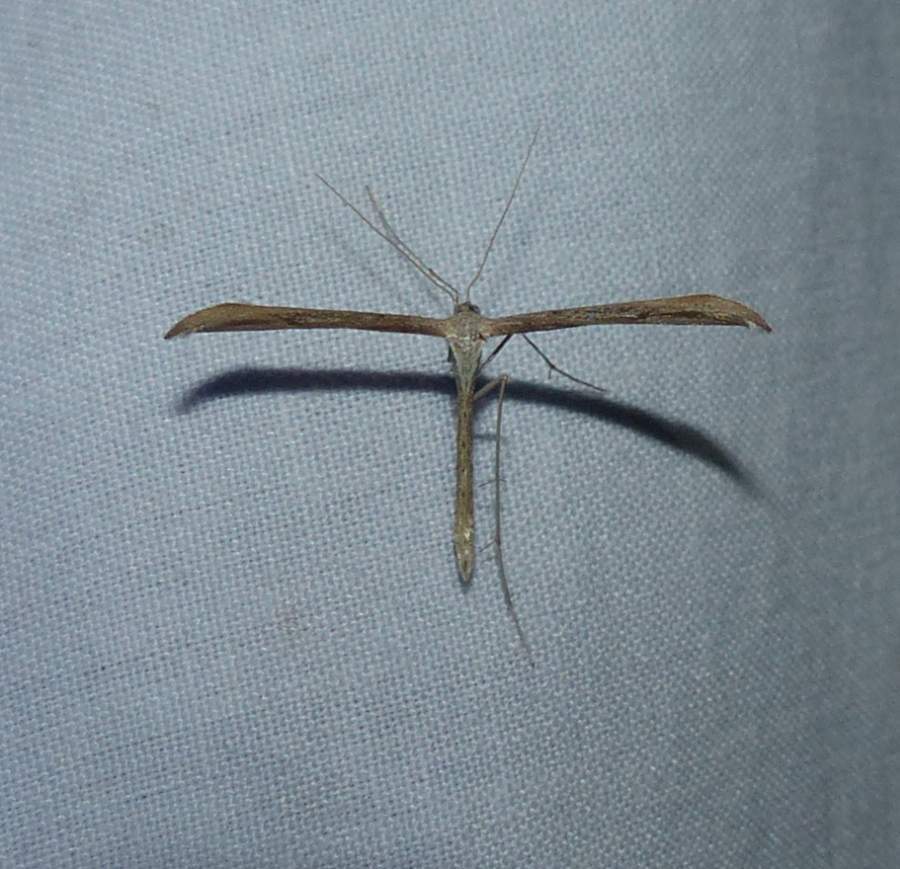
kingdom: Animalia
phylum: Arthropoda
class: Insecta
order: Lepidoptera
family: Pterophoridae
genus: Emmelina
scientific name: Emmelina monodactyla
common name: Common plume
